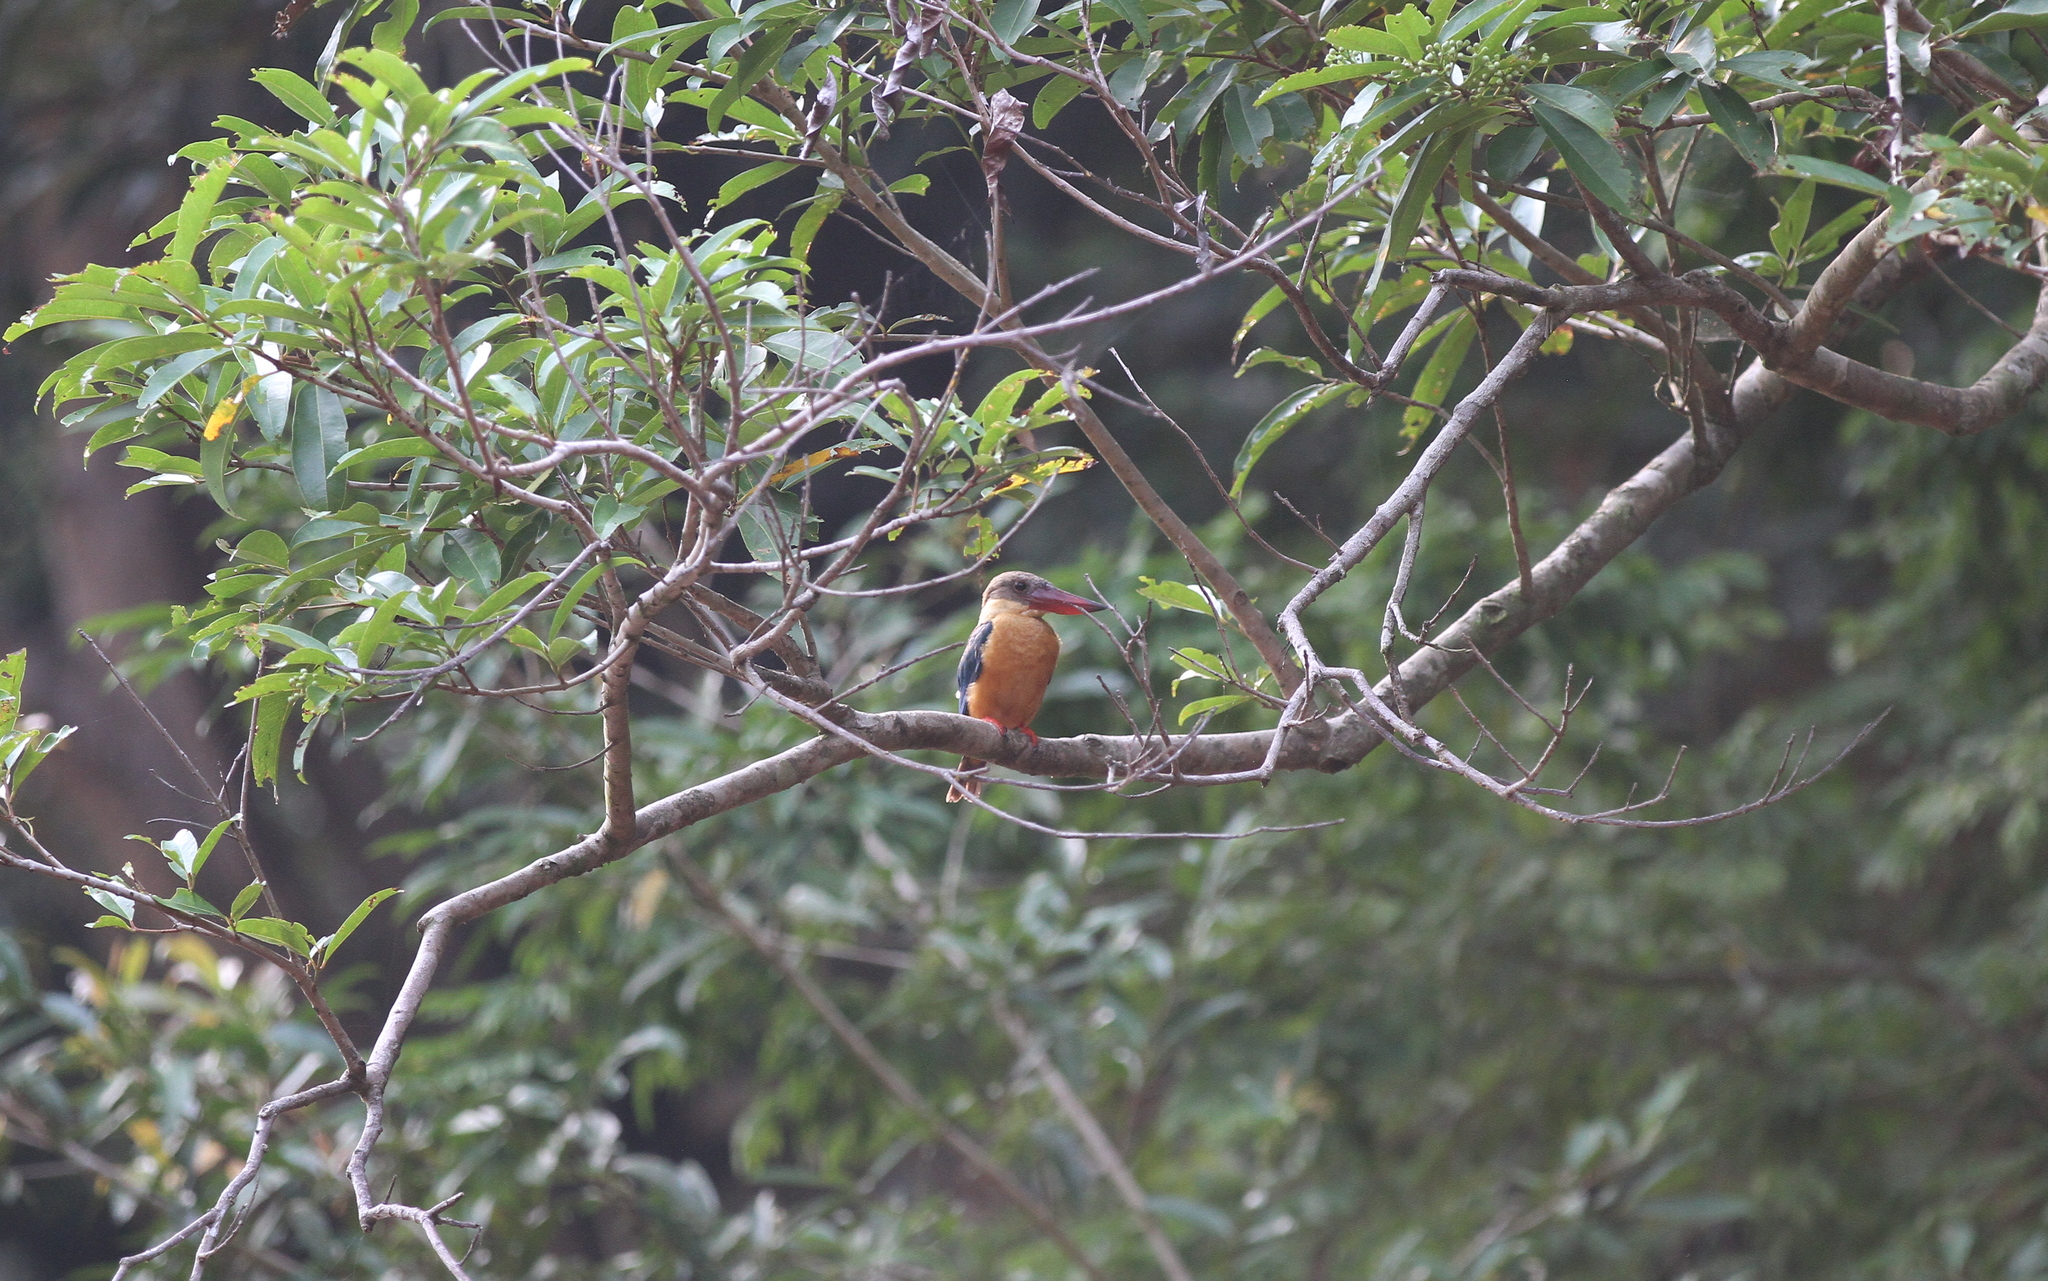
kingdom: Animalia
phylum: Chordata
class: Aves
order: Coraciiformes
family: Alcedinidae
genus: Pelargopsis
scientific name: Pelargopsis capensis
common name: Stork-billed kingfisher
